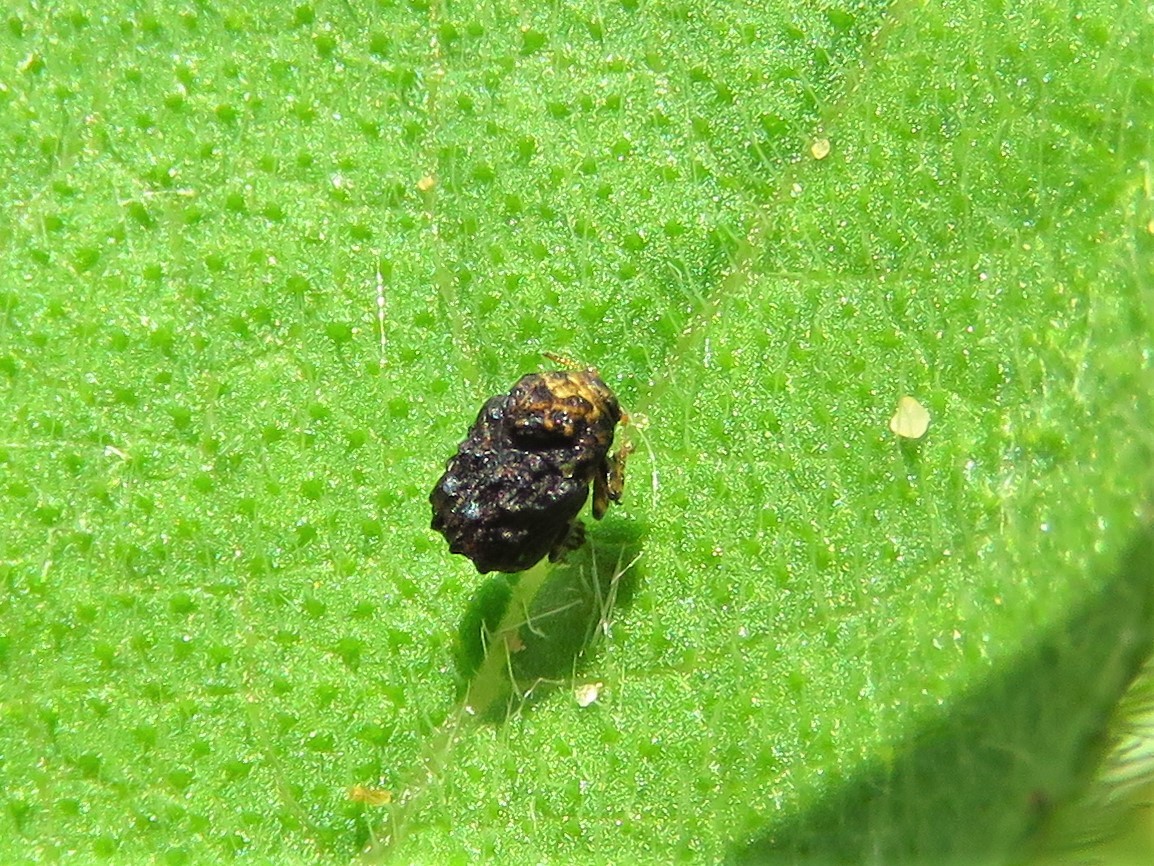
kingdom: Animalia
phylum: Arthropoda
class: Insecta
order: Coleoptera
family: Chrysomelidae
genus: Exema
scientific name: Exema dispar
